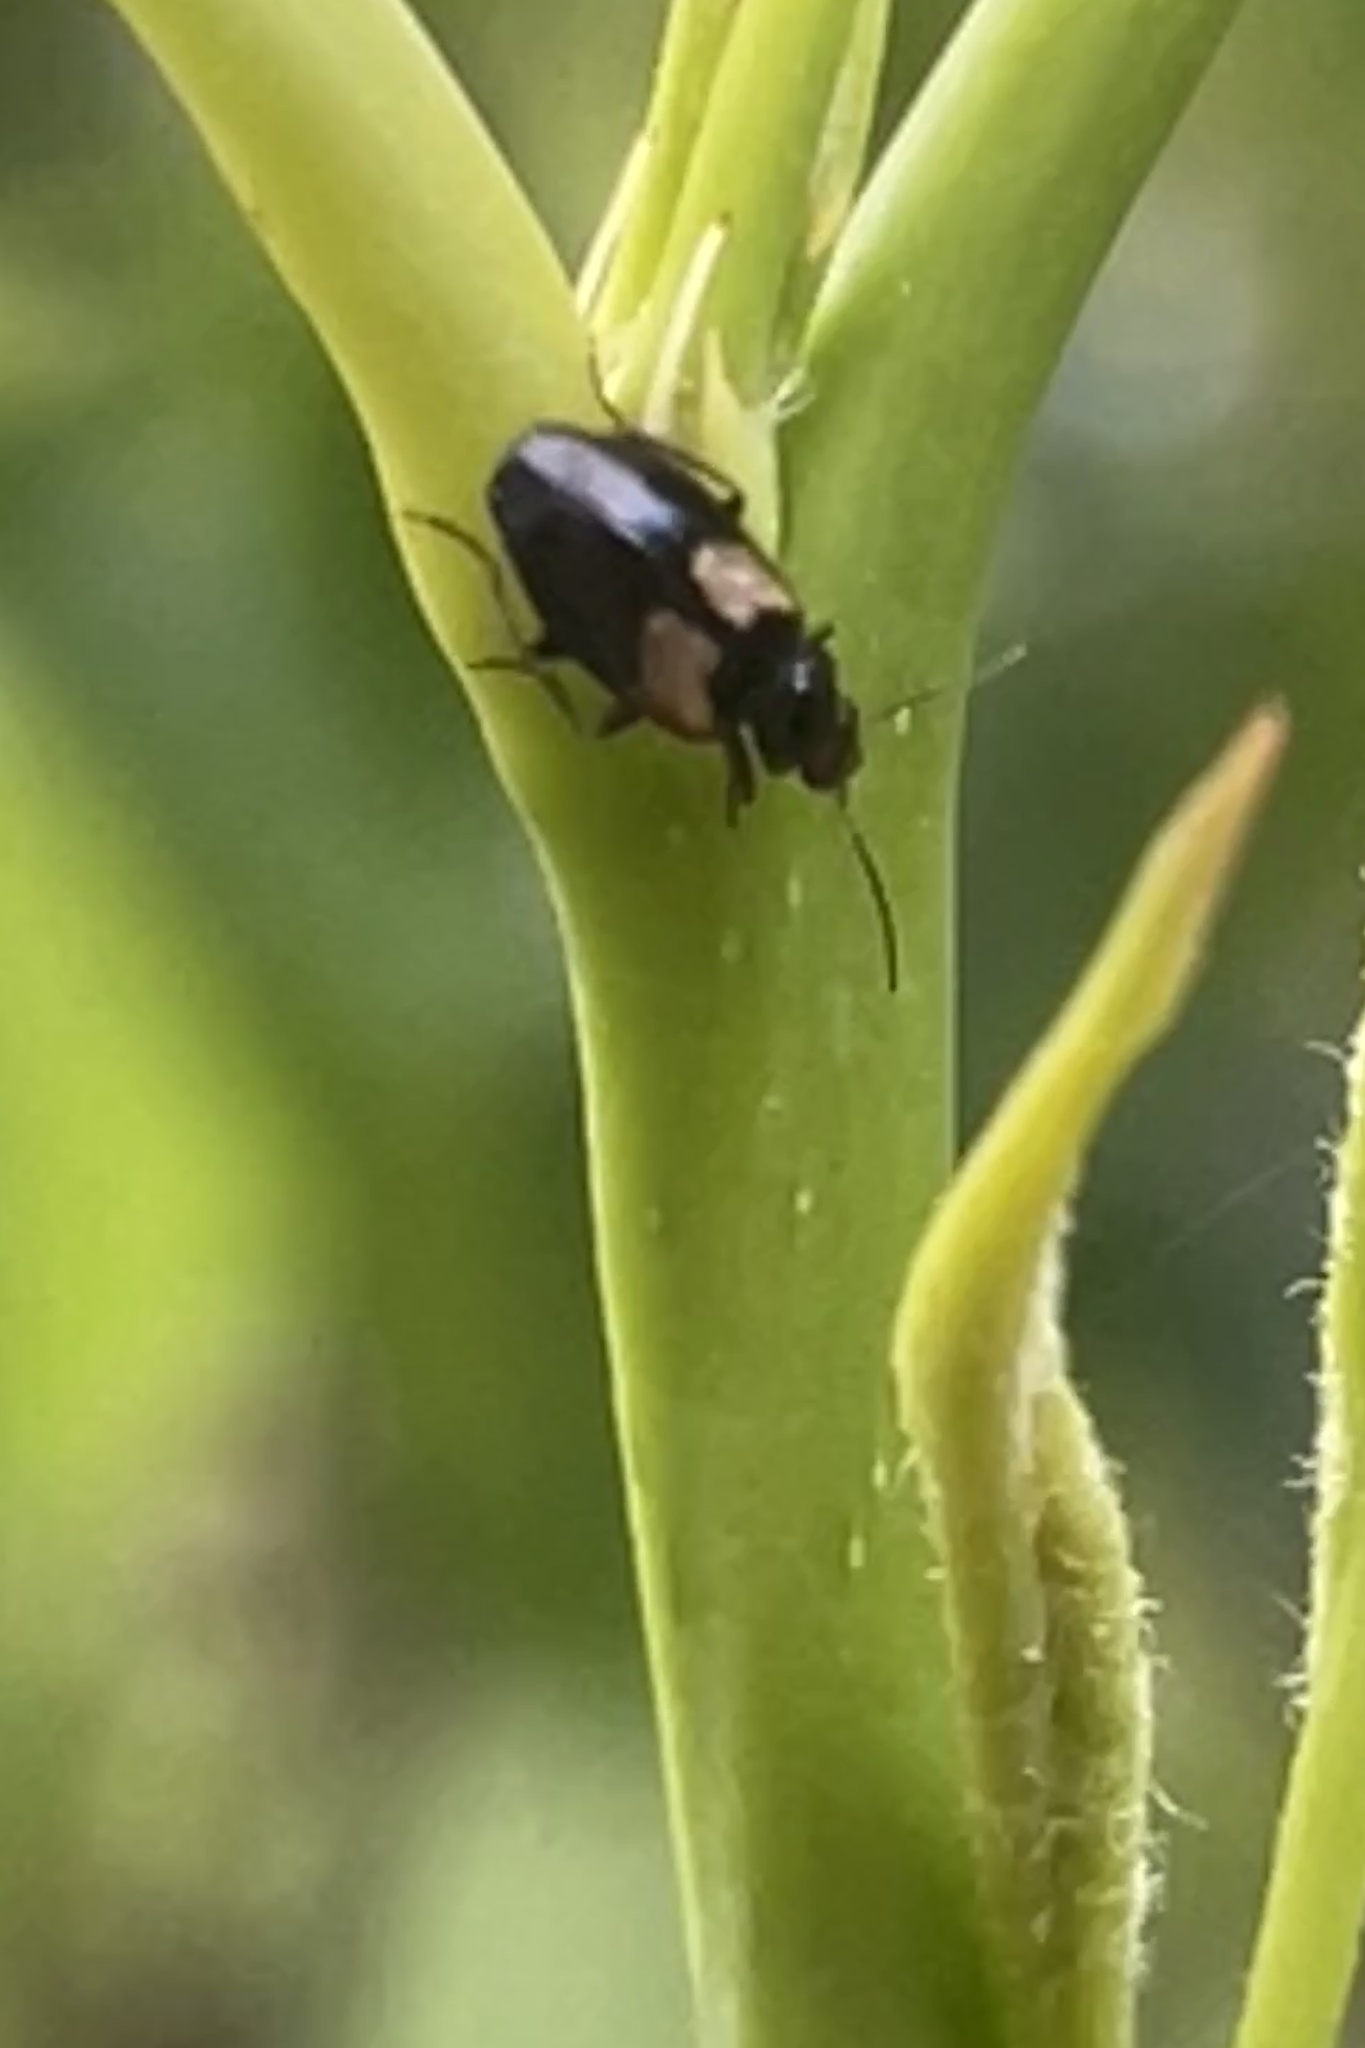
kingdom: Animalia
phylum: Arthropoda
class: Insecta
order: Coleoptera
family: Carabidae
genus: Sarothrocrepis
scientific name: Sarothrocrepis civica
